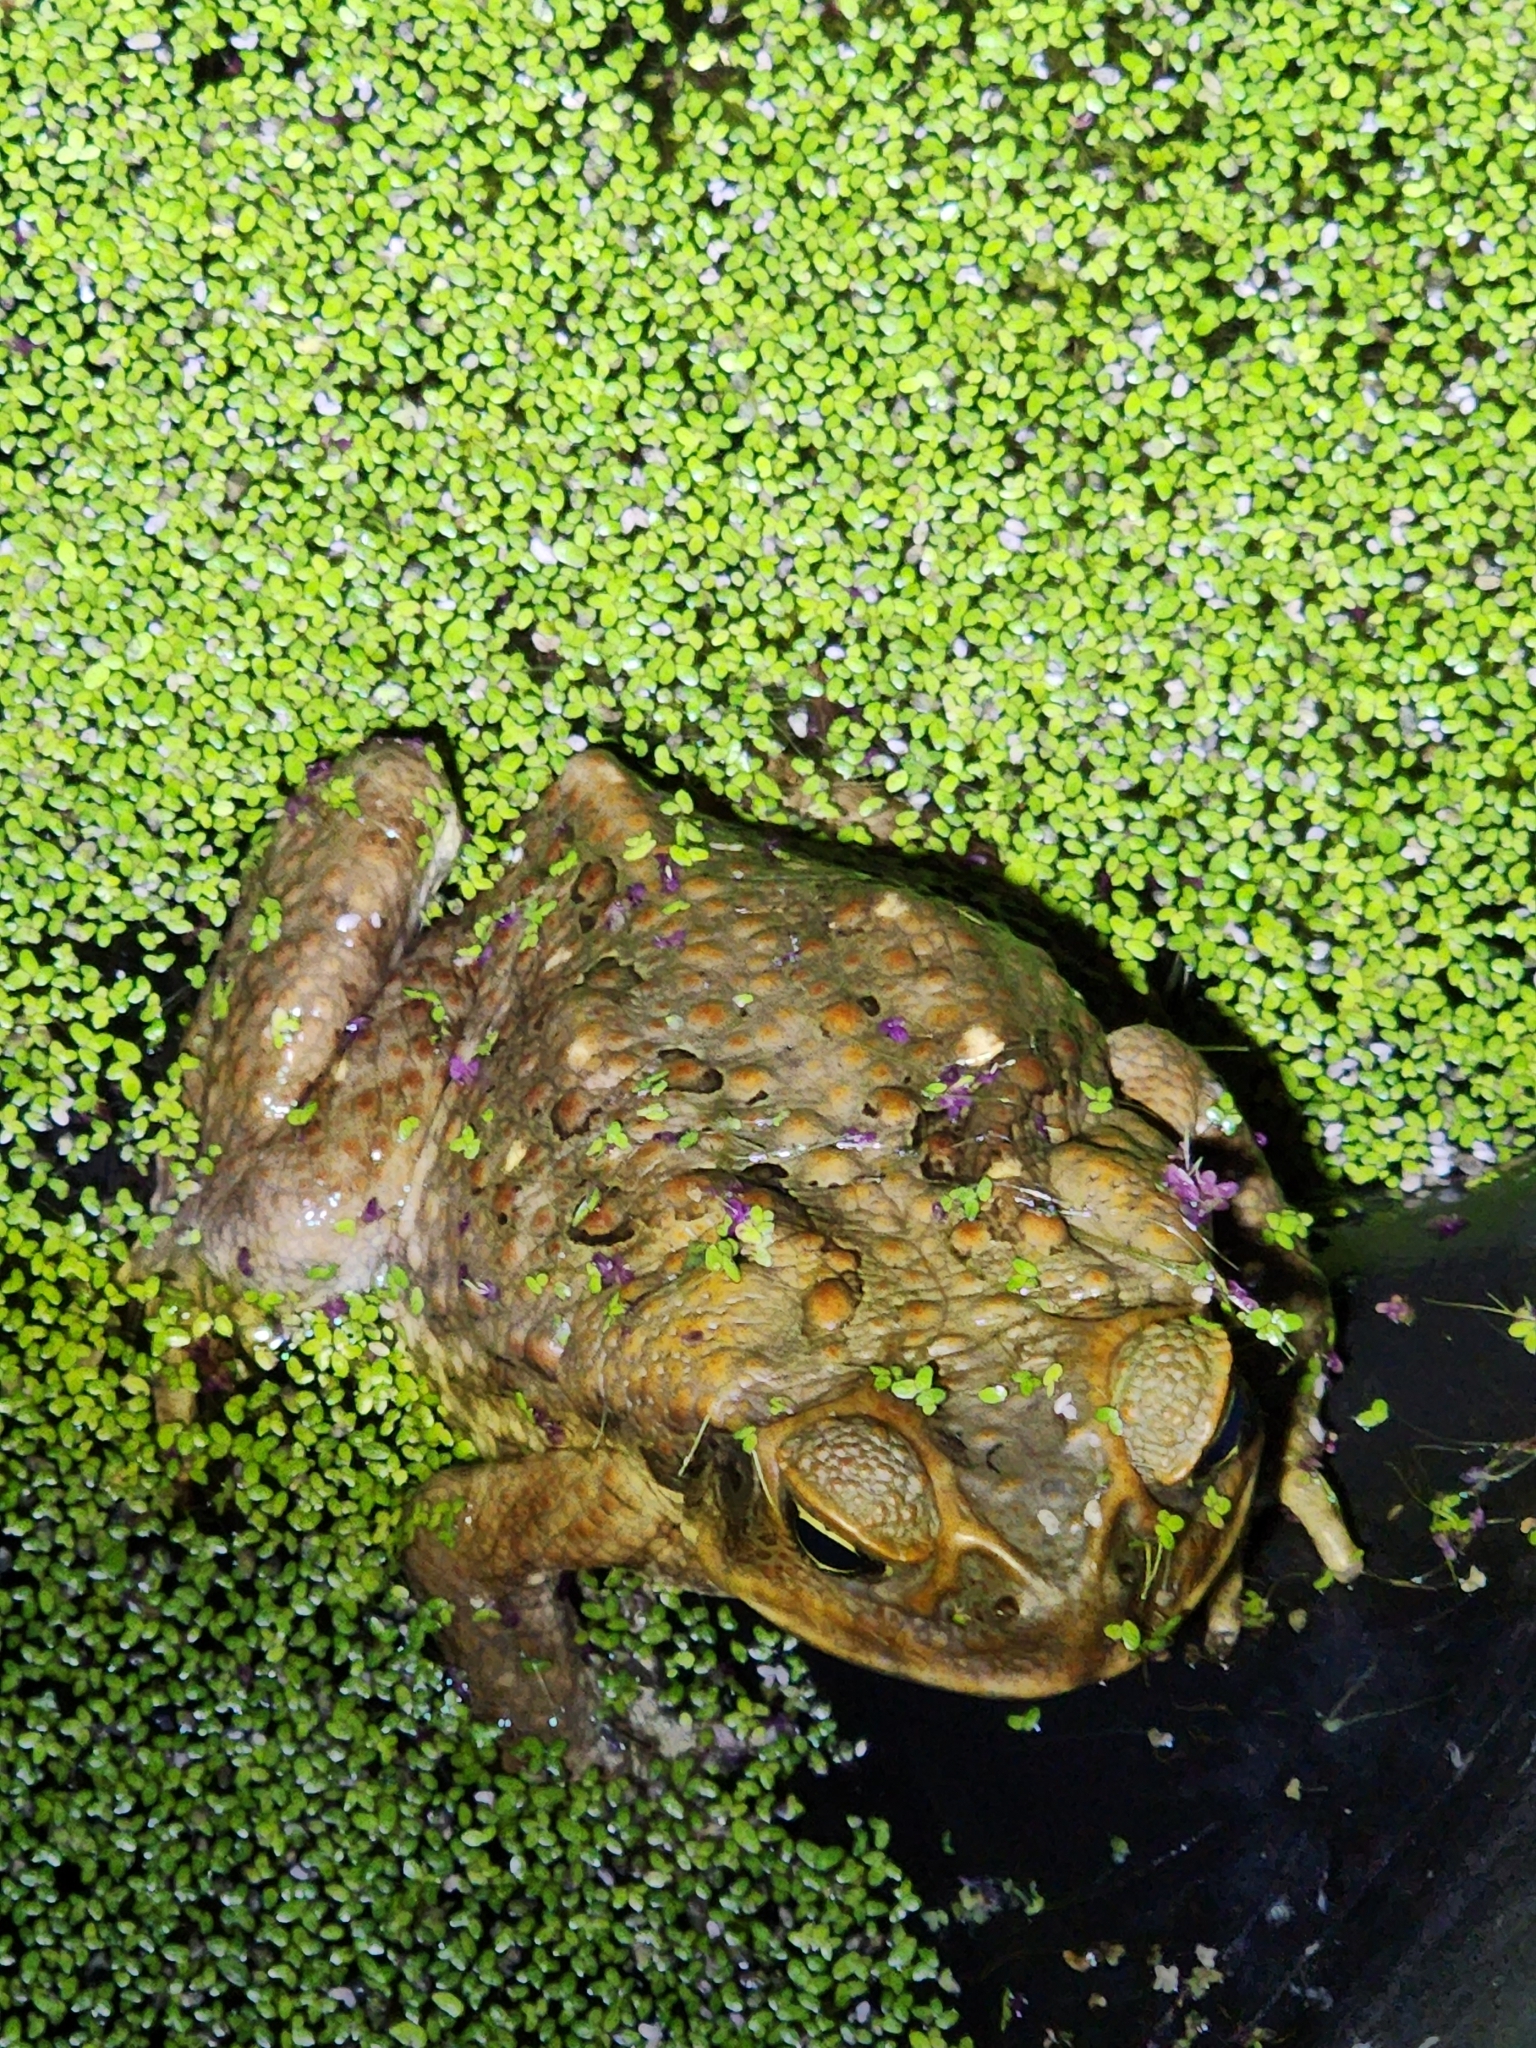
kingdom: Animalia
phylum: Chordata
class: Amphibia
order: Anura
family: Bufonidae
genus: Rhinella
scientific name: Rhinella marina
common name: Cane toad
